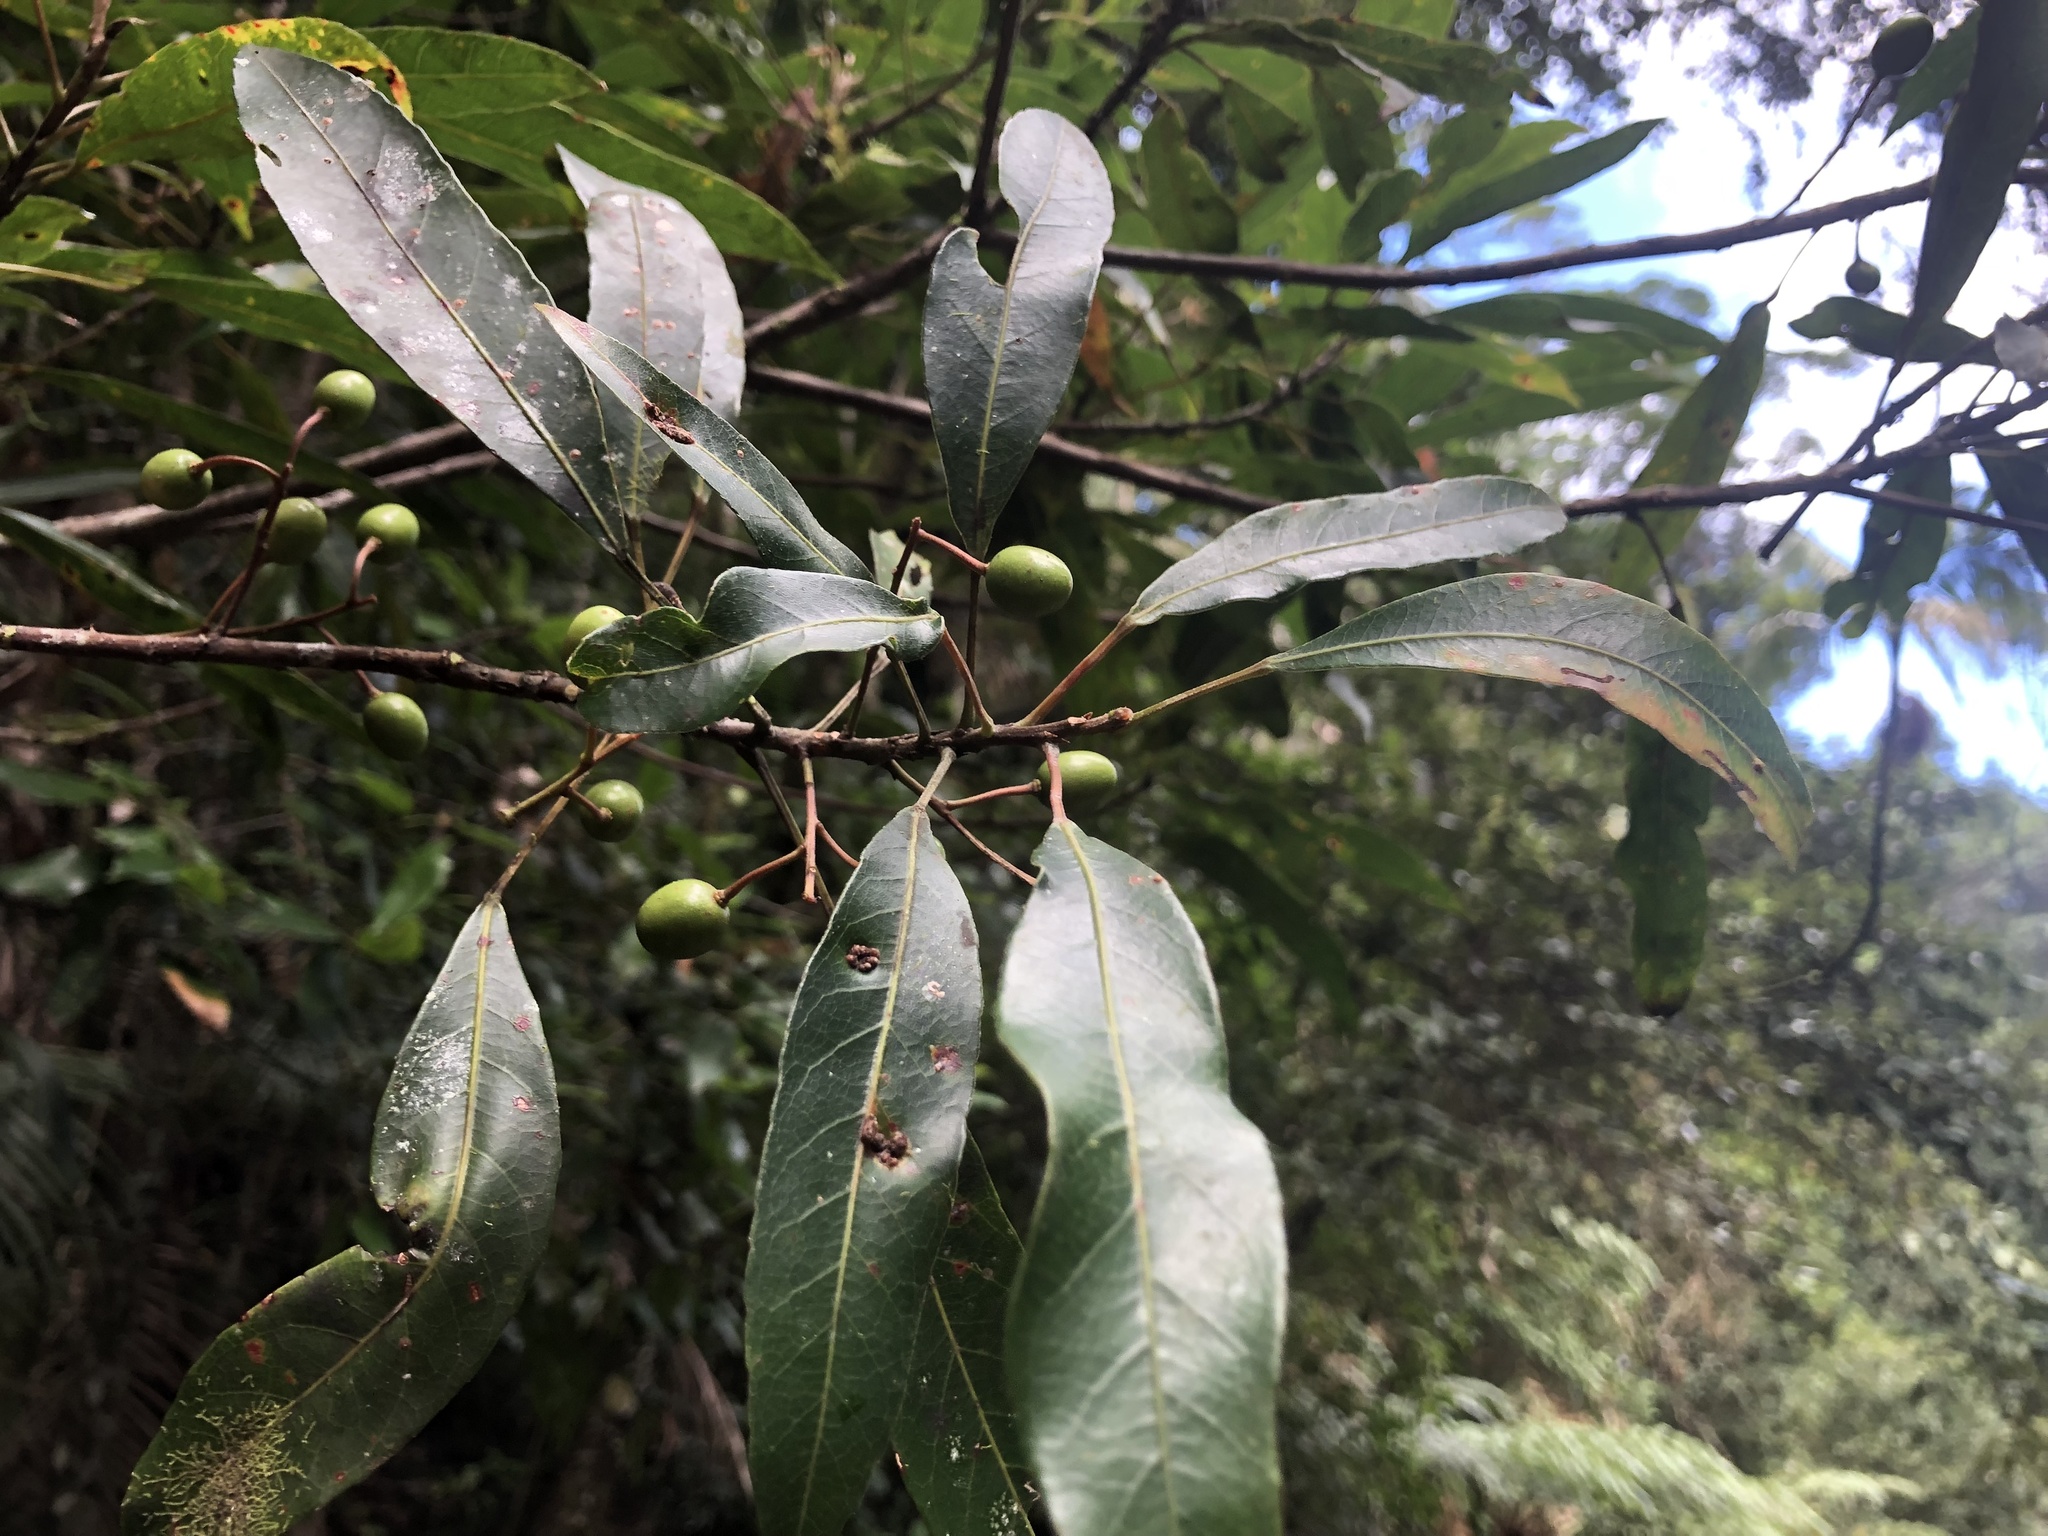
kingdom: Plantae
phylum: Tracheophyta
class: Magnoliopsida
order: Oxalidales
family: Elaeocarpaceae
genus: Elaeocarpus
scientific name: Elaeocarpus kirtonii
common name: Mowbullan whitewood
